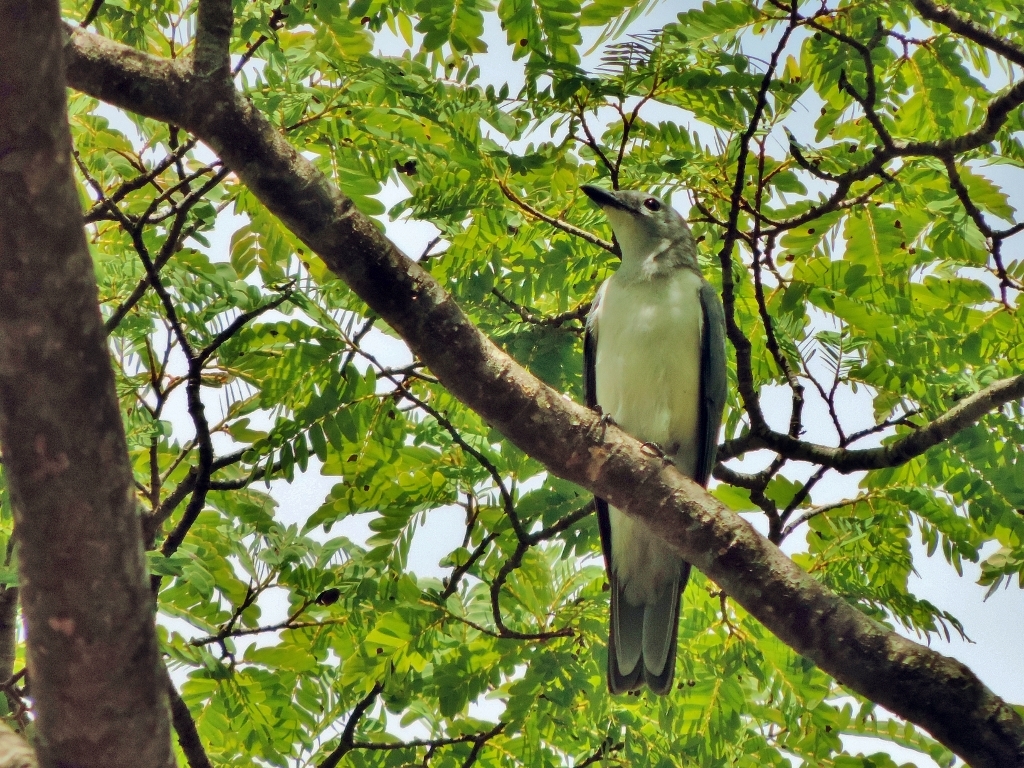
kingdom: Animalia
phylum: Chordata
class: Aves
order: Passeriformes
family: Campephagidae
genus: Coracina
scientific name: Coracina pectoralis
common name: White-breasted cuckooshrike
